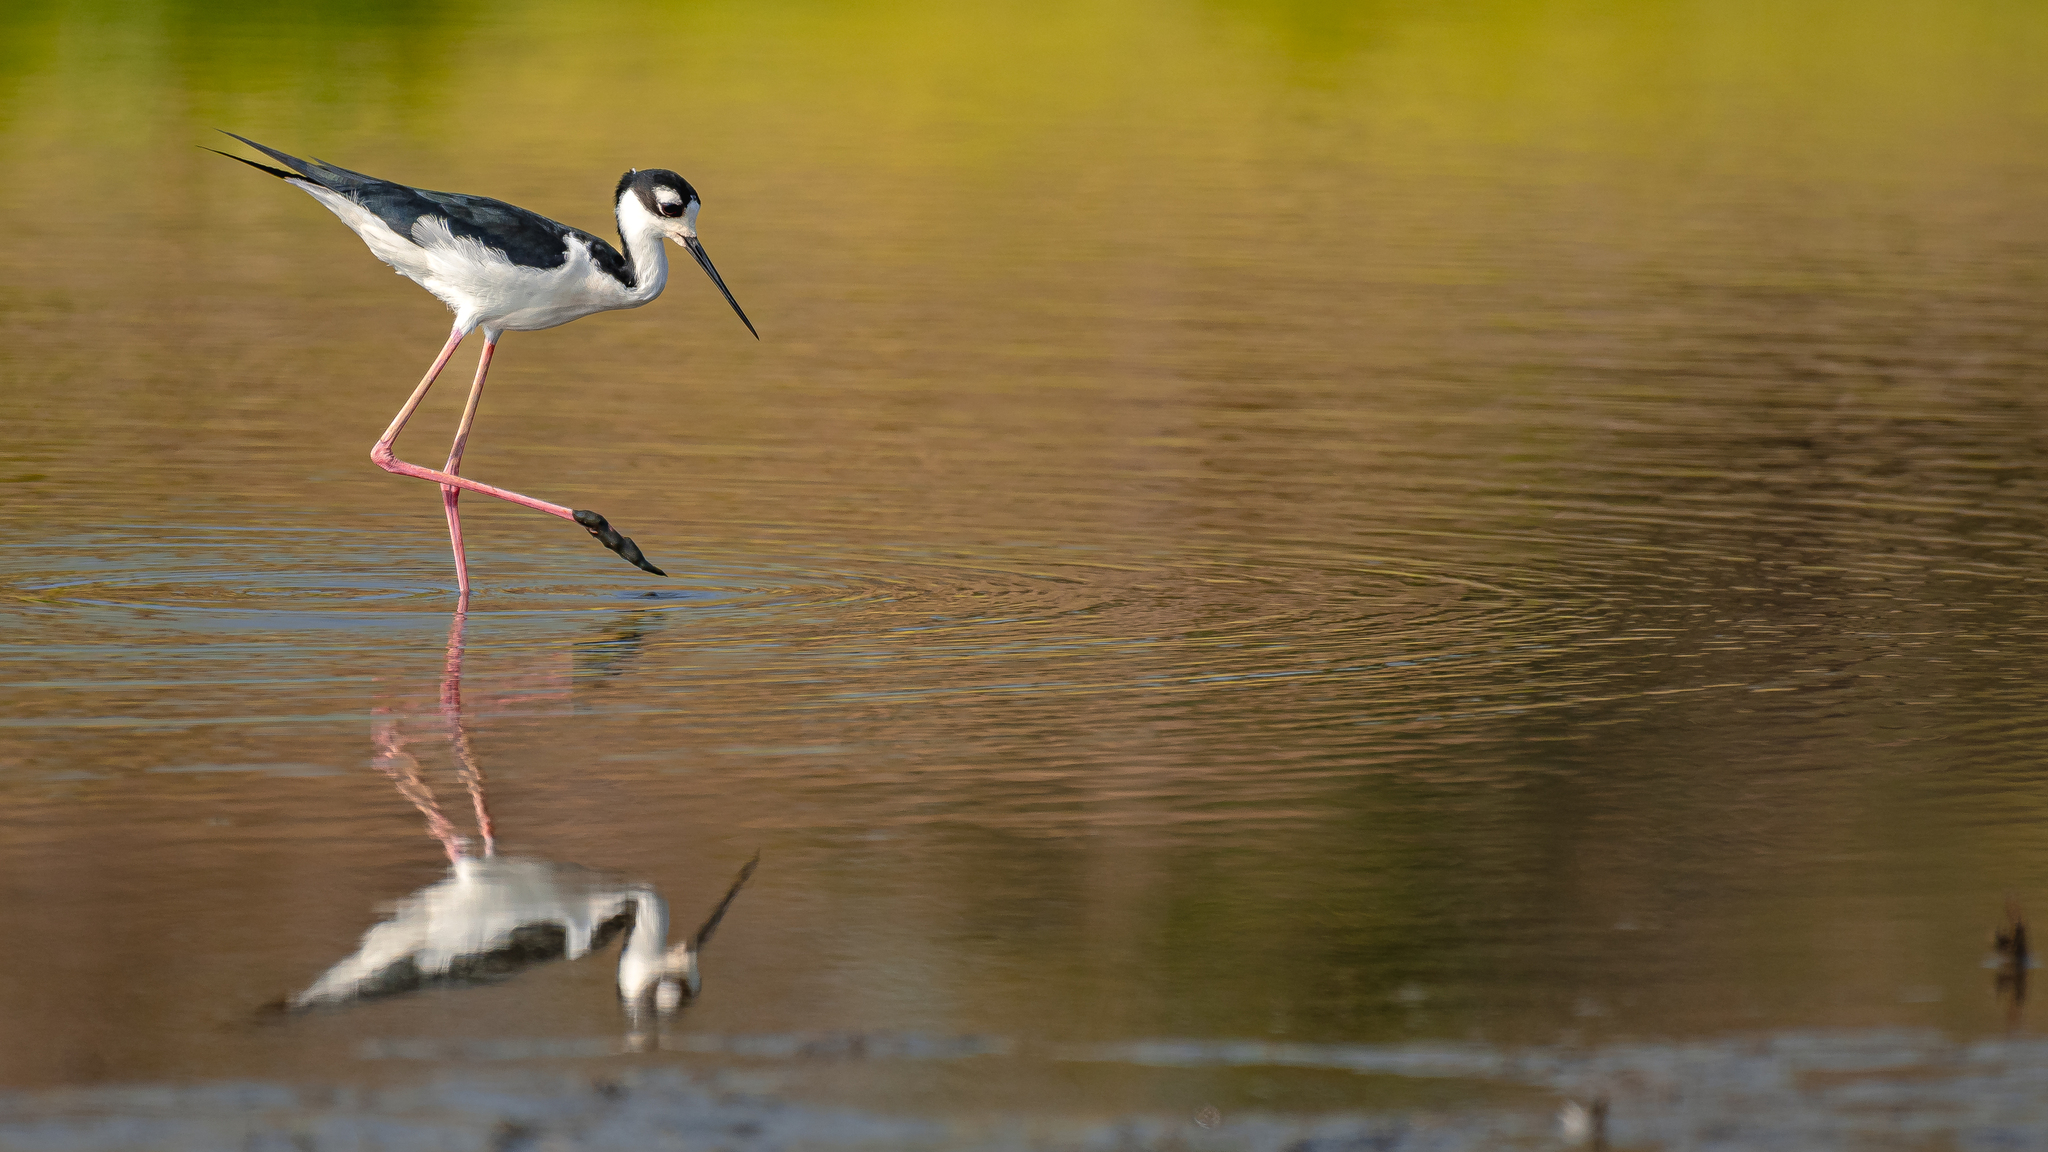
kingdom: Animalia
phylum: Chordata
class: Aves
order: Charadriiformes
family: Recurvirostridae
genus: Himantopus
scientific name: Himantopus mexicanus
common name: Black-necked stilt
